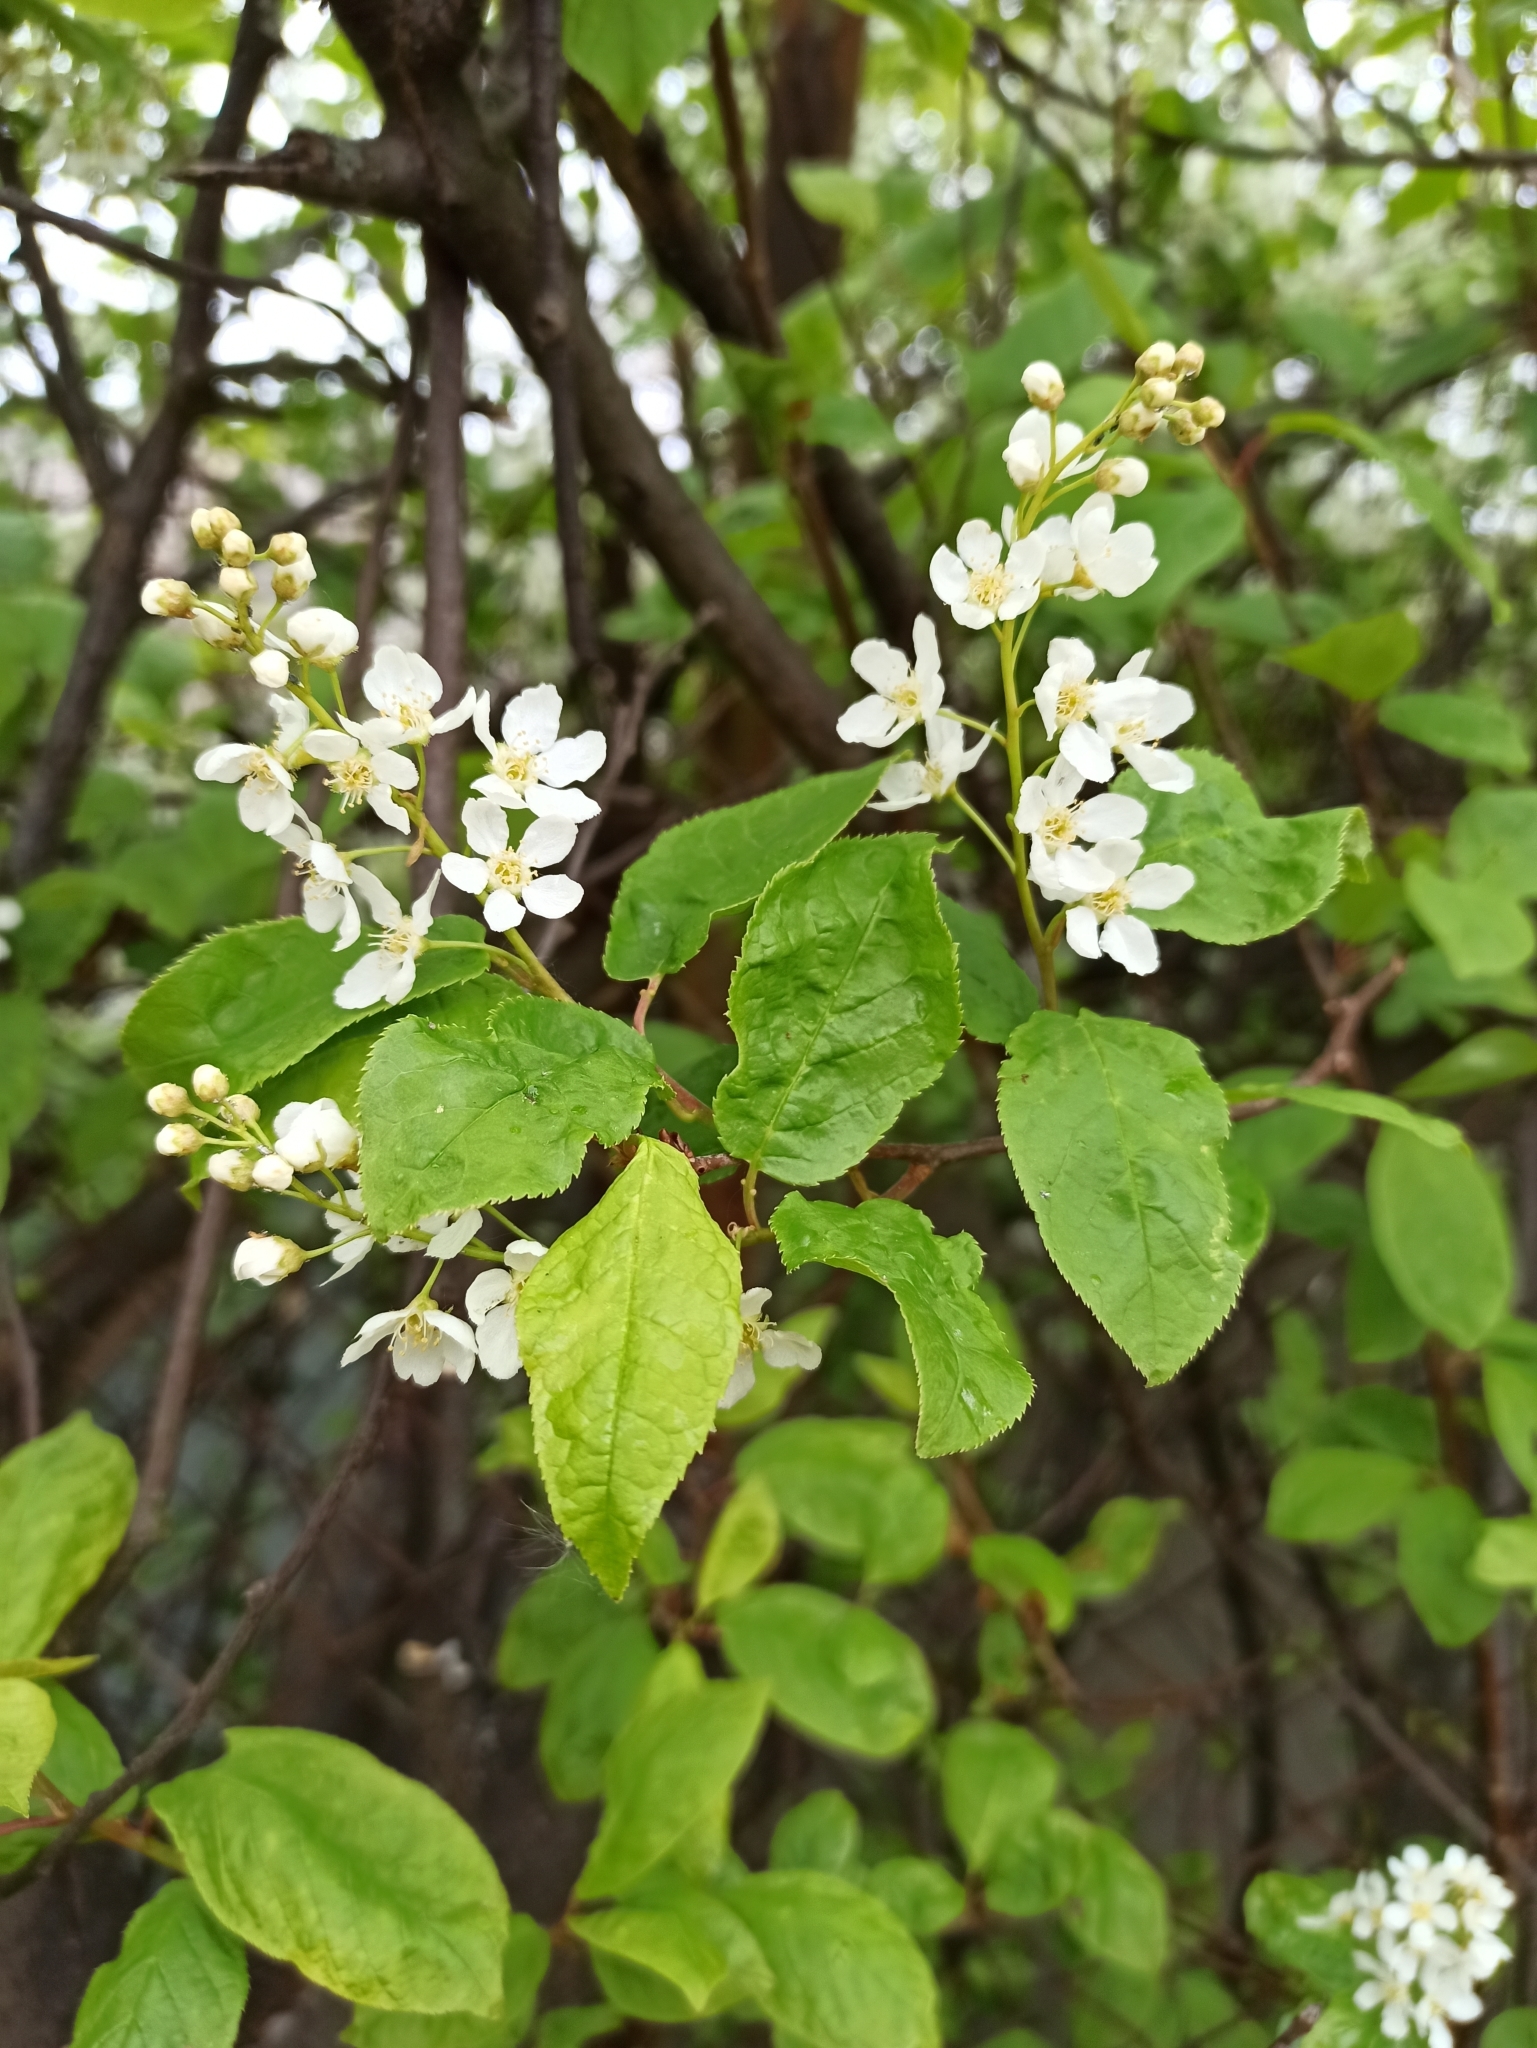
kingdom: Plantae
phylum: Tracheophyta
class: Magnoliopsida
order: Rosales
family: Rosaceae
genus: Prunus
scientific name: Prunus padus
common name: Bird cherry
